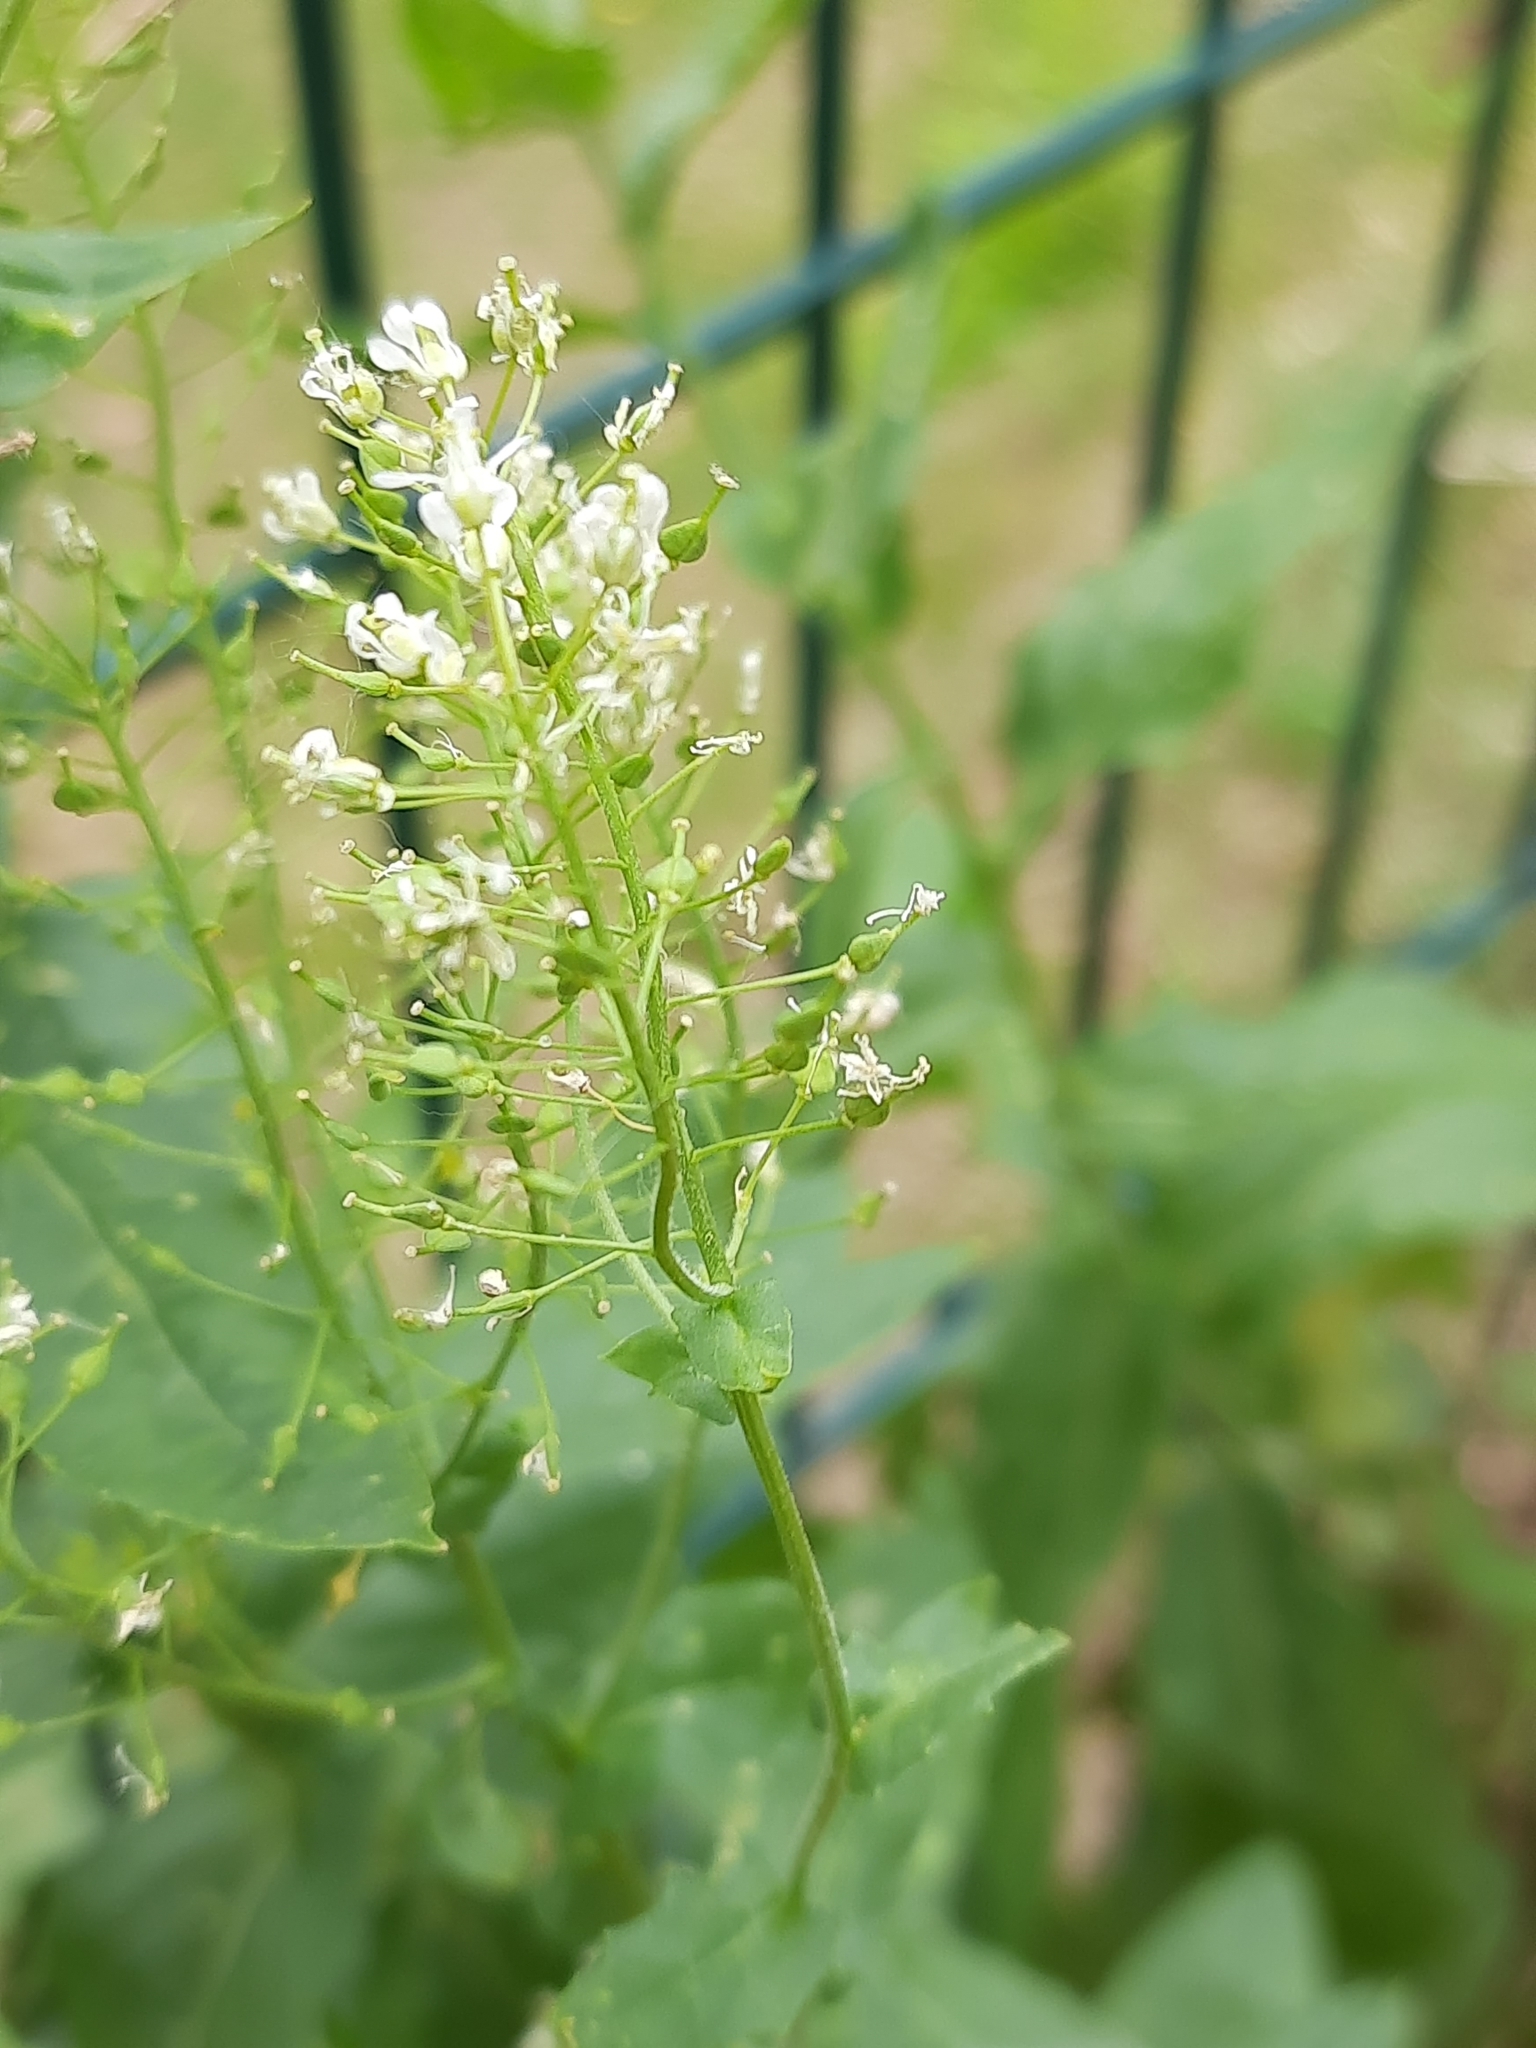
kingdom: Plantae
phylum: Tracheophyta
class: Magnoliopsida
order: Brassicales
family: Brassicaceae
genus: Lepidium
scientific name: Lepidium draba
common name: Hoary cress
